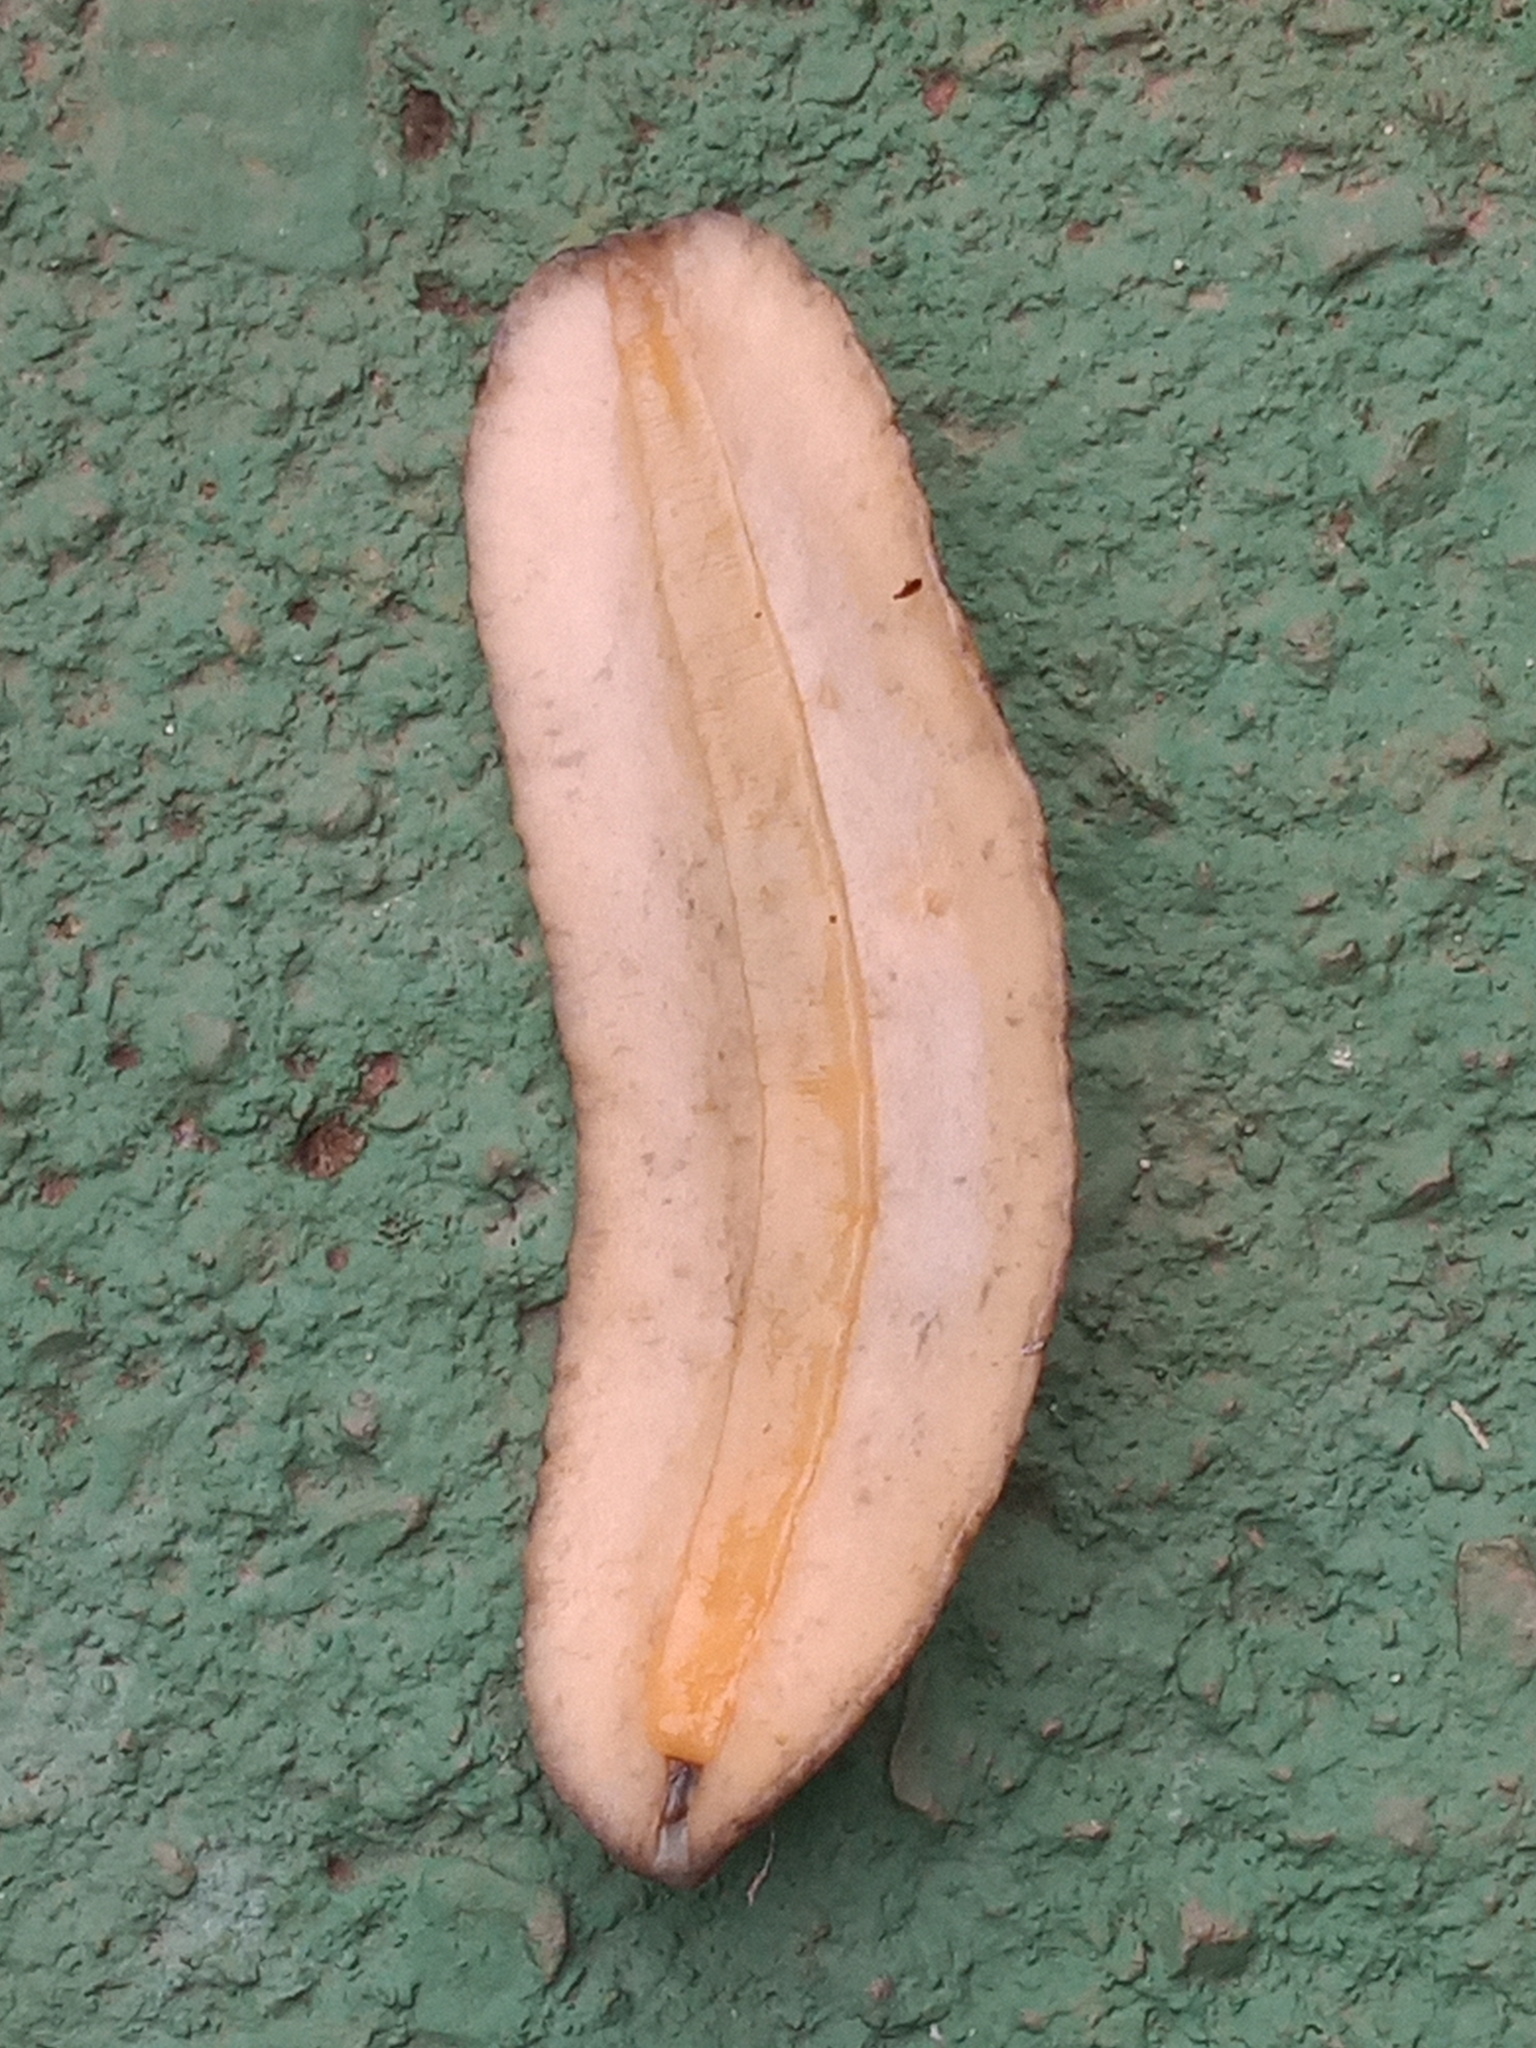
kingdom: Animalia
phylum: Mollusca
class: Gastropoda
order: Systellommatophora
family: Veronicellidae
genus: Sarasinula
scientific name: Sarasinula linguaeformis
